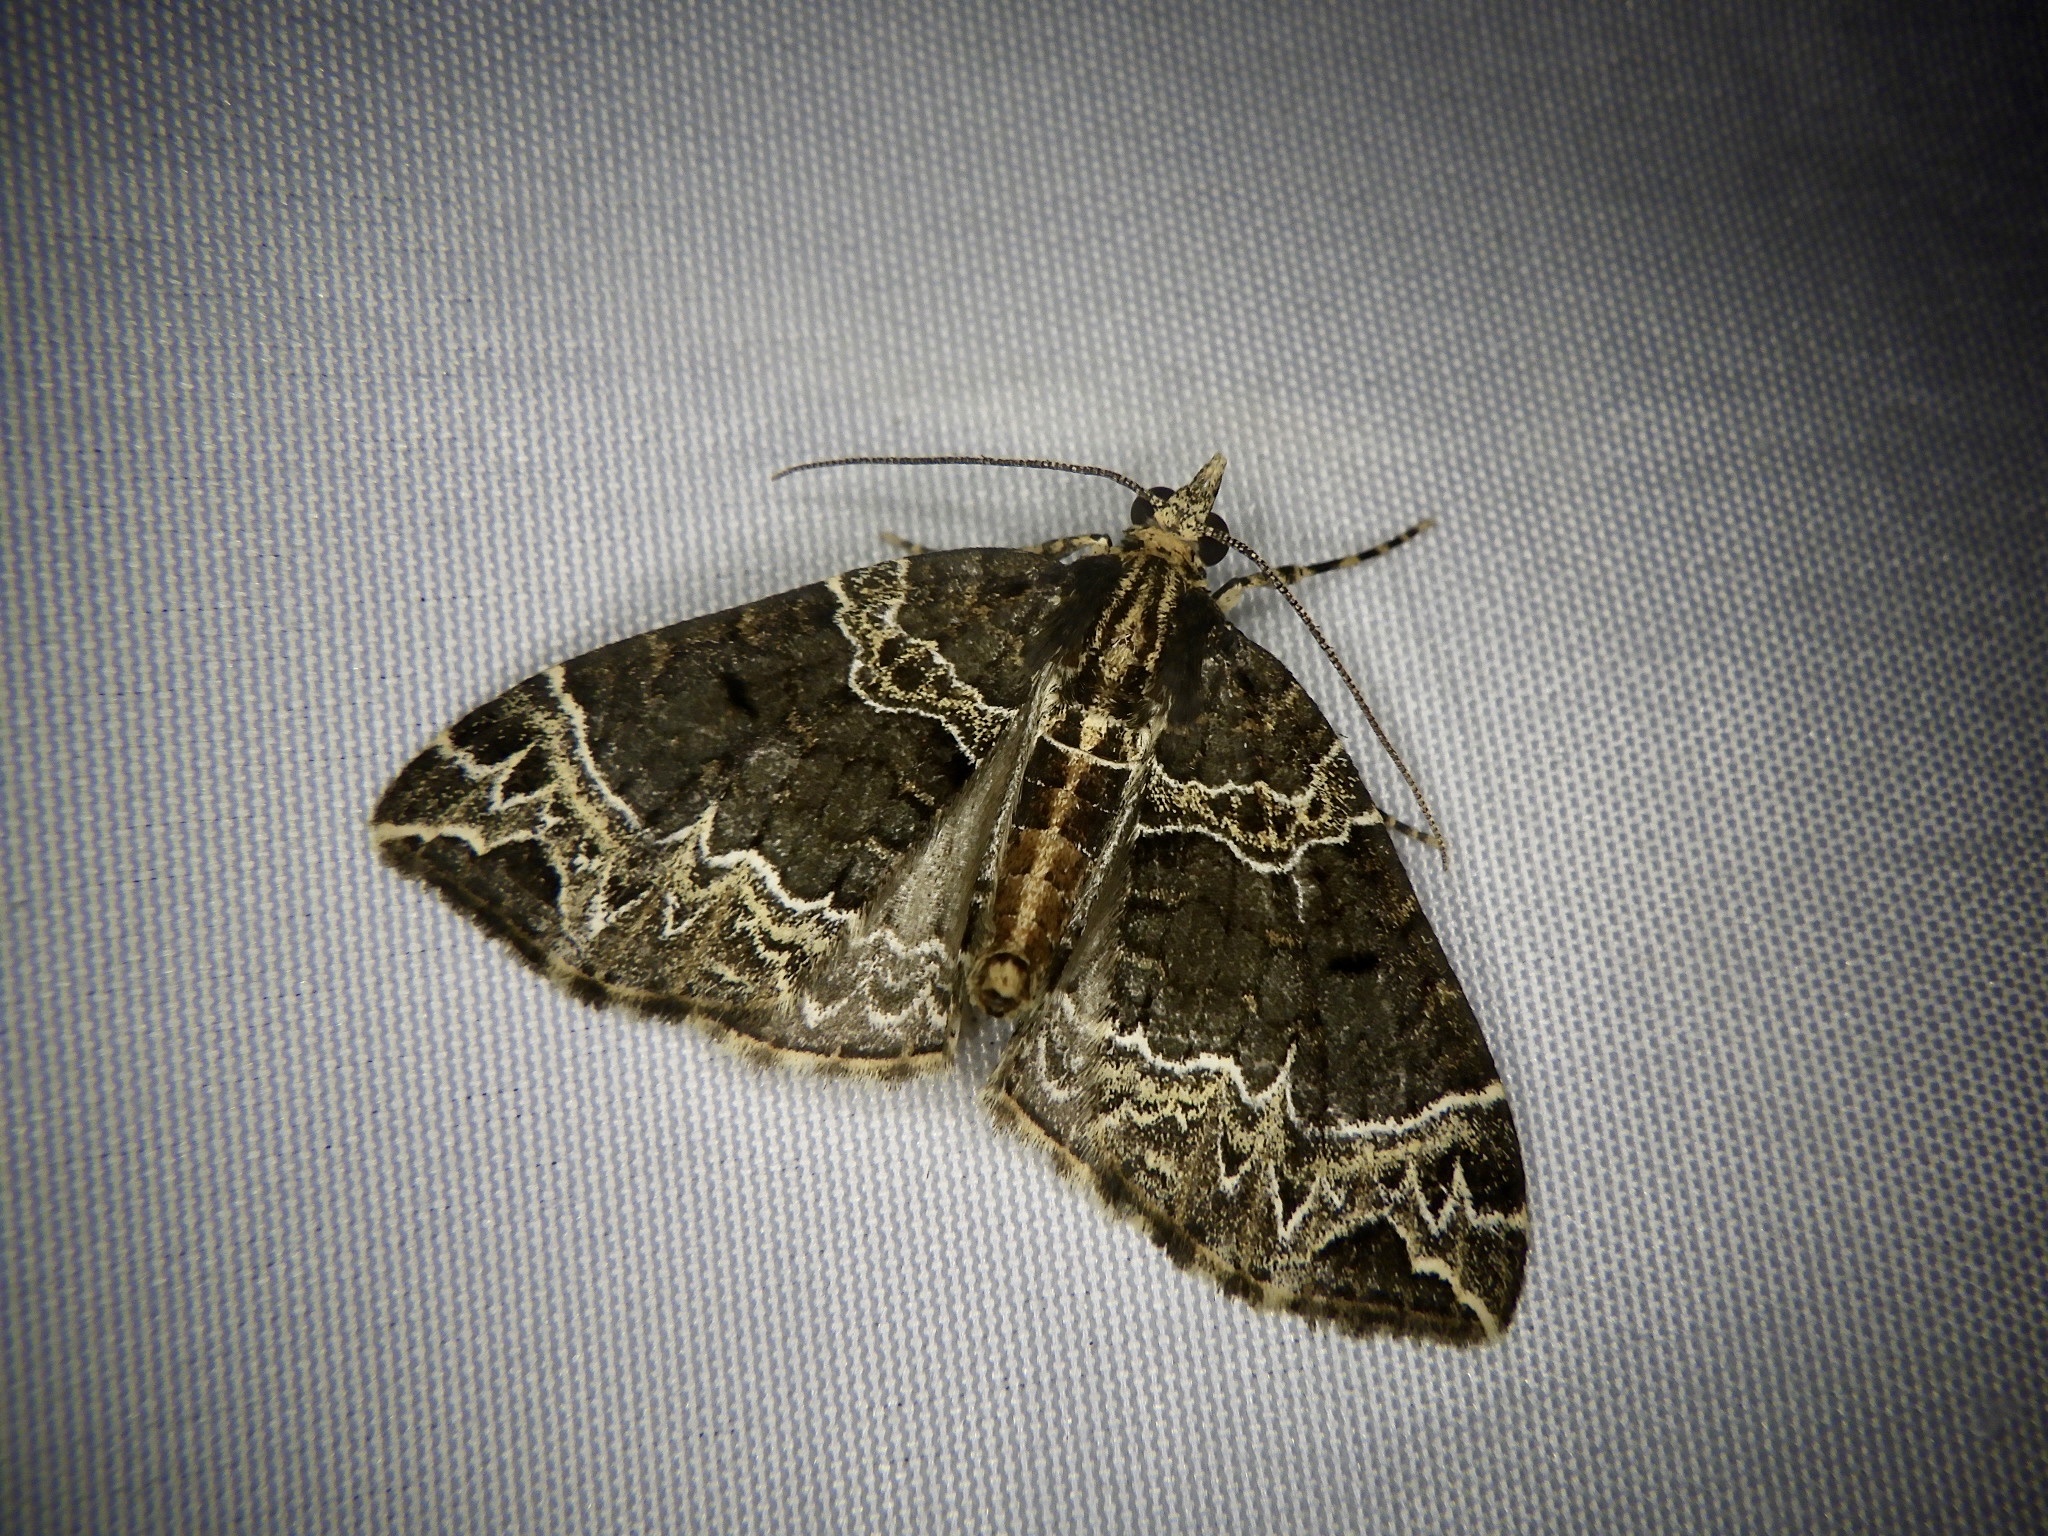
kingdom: Animalia
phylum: Arthropoda
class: Insecta
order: Lepidoptera
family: Geometridae
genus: Ecliptopera
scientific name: Ecliptopera umbrosaria
